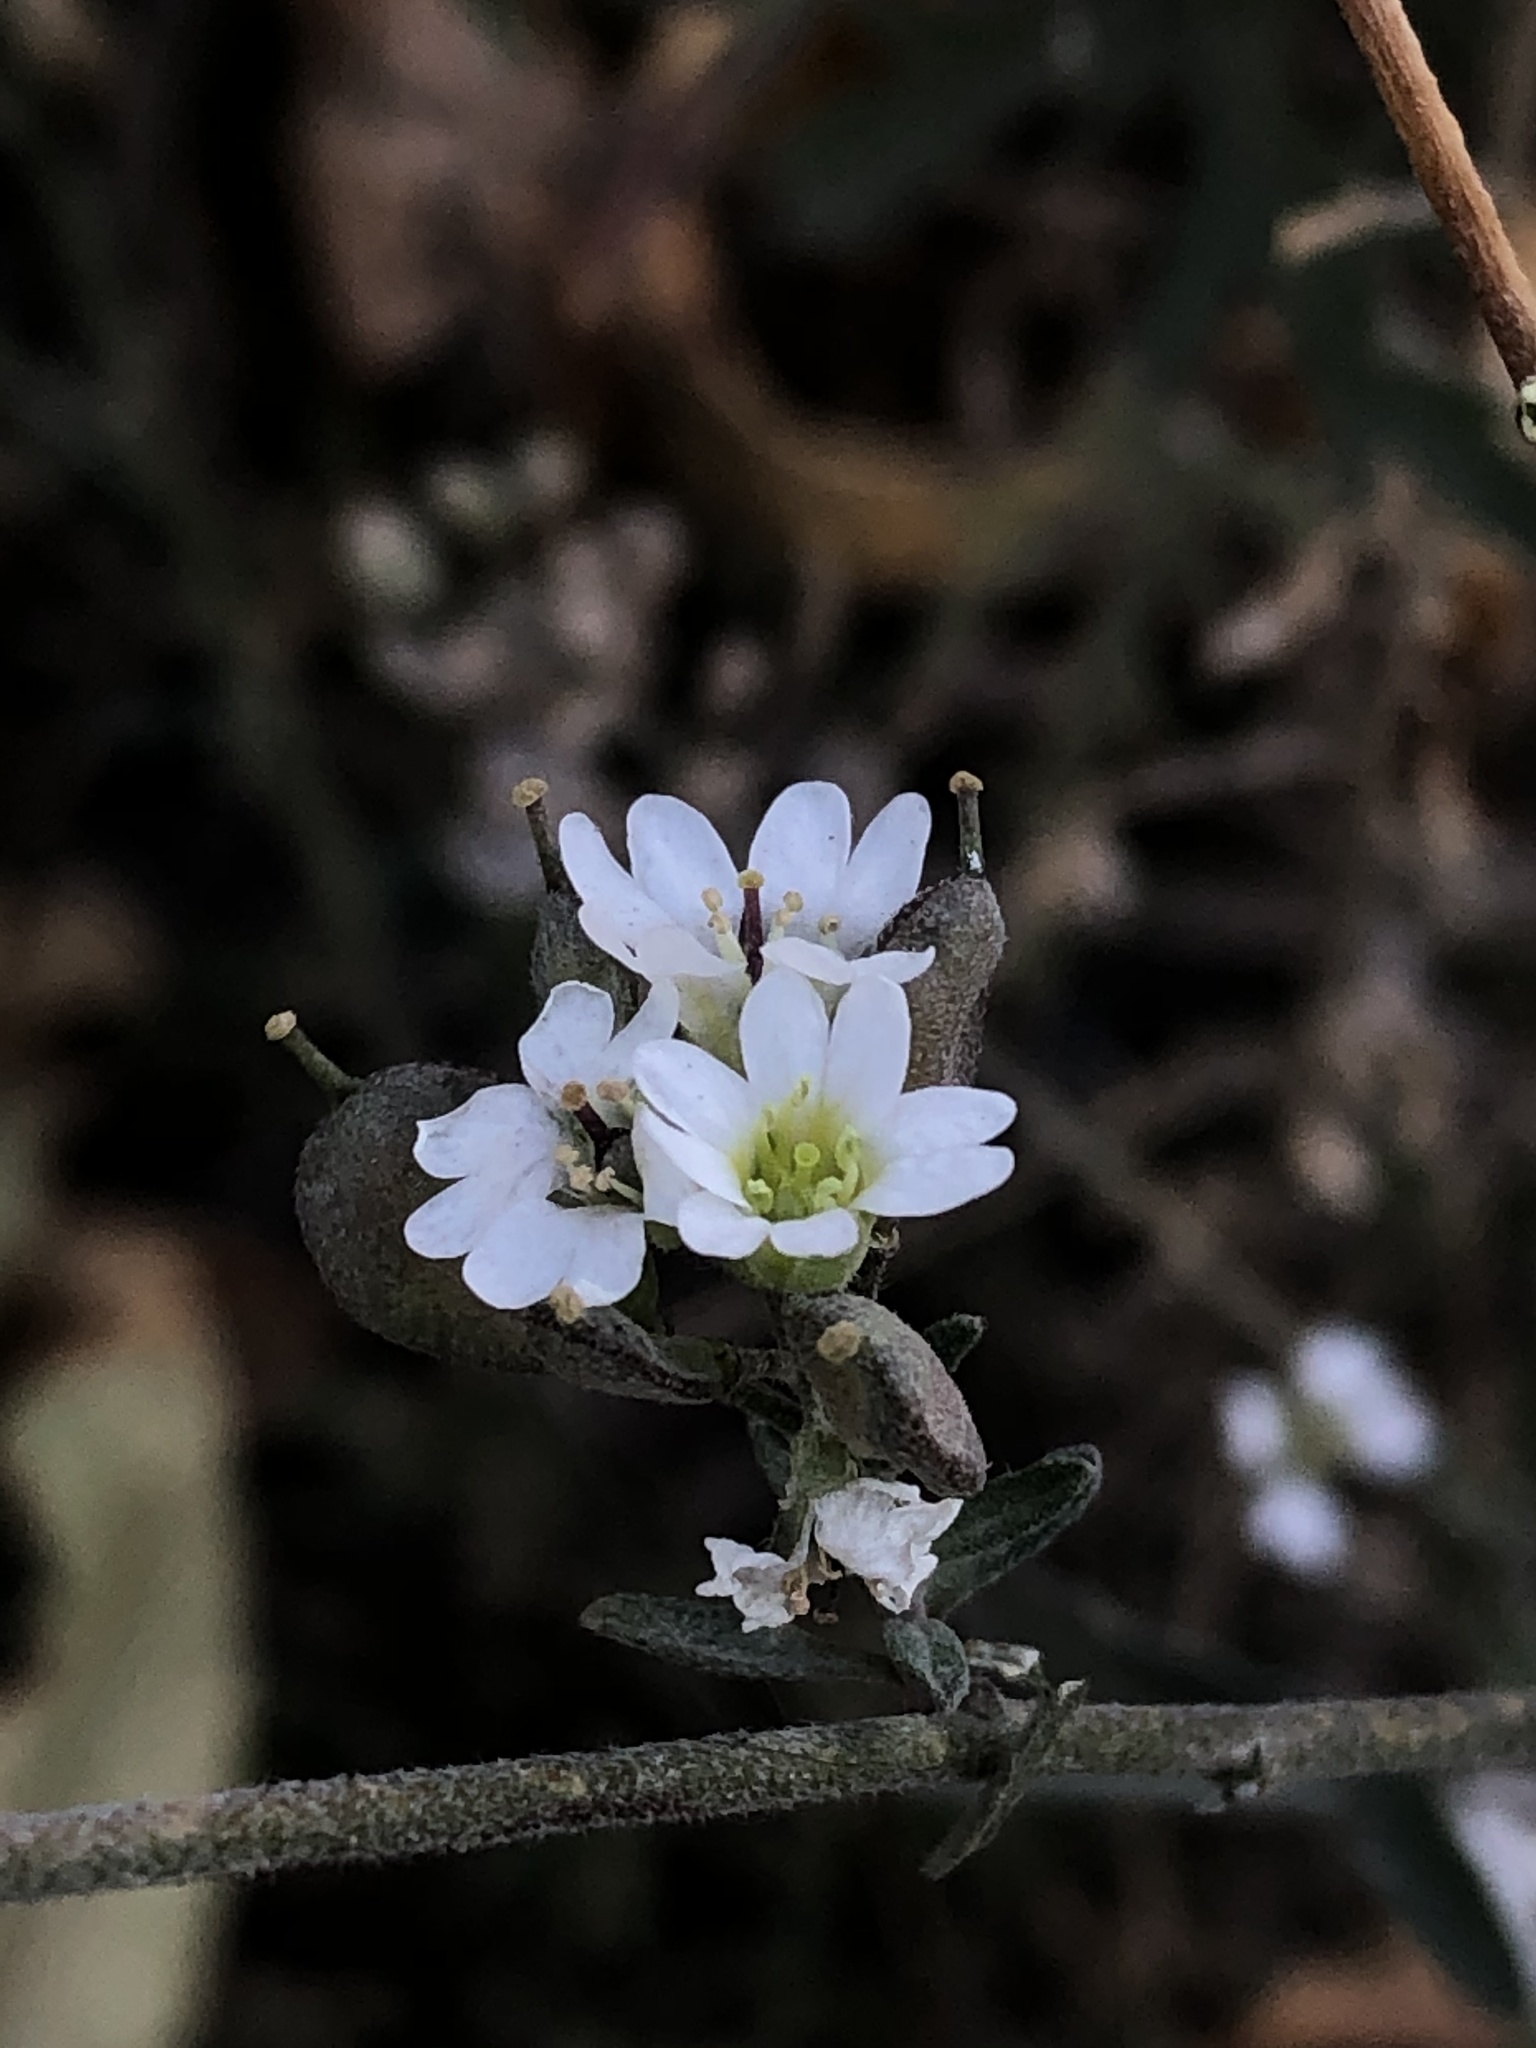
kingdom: Plantae
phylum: Tracheophyta
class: Magnoliopsida
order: Brassicales
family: Brassicaceae
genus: Berteroa
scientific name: Berteroa incana
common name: Hoary alison
